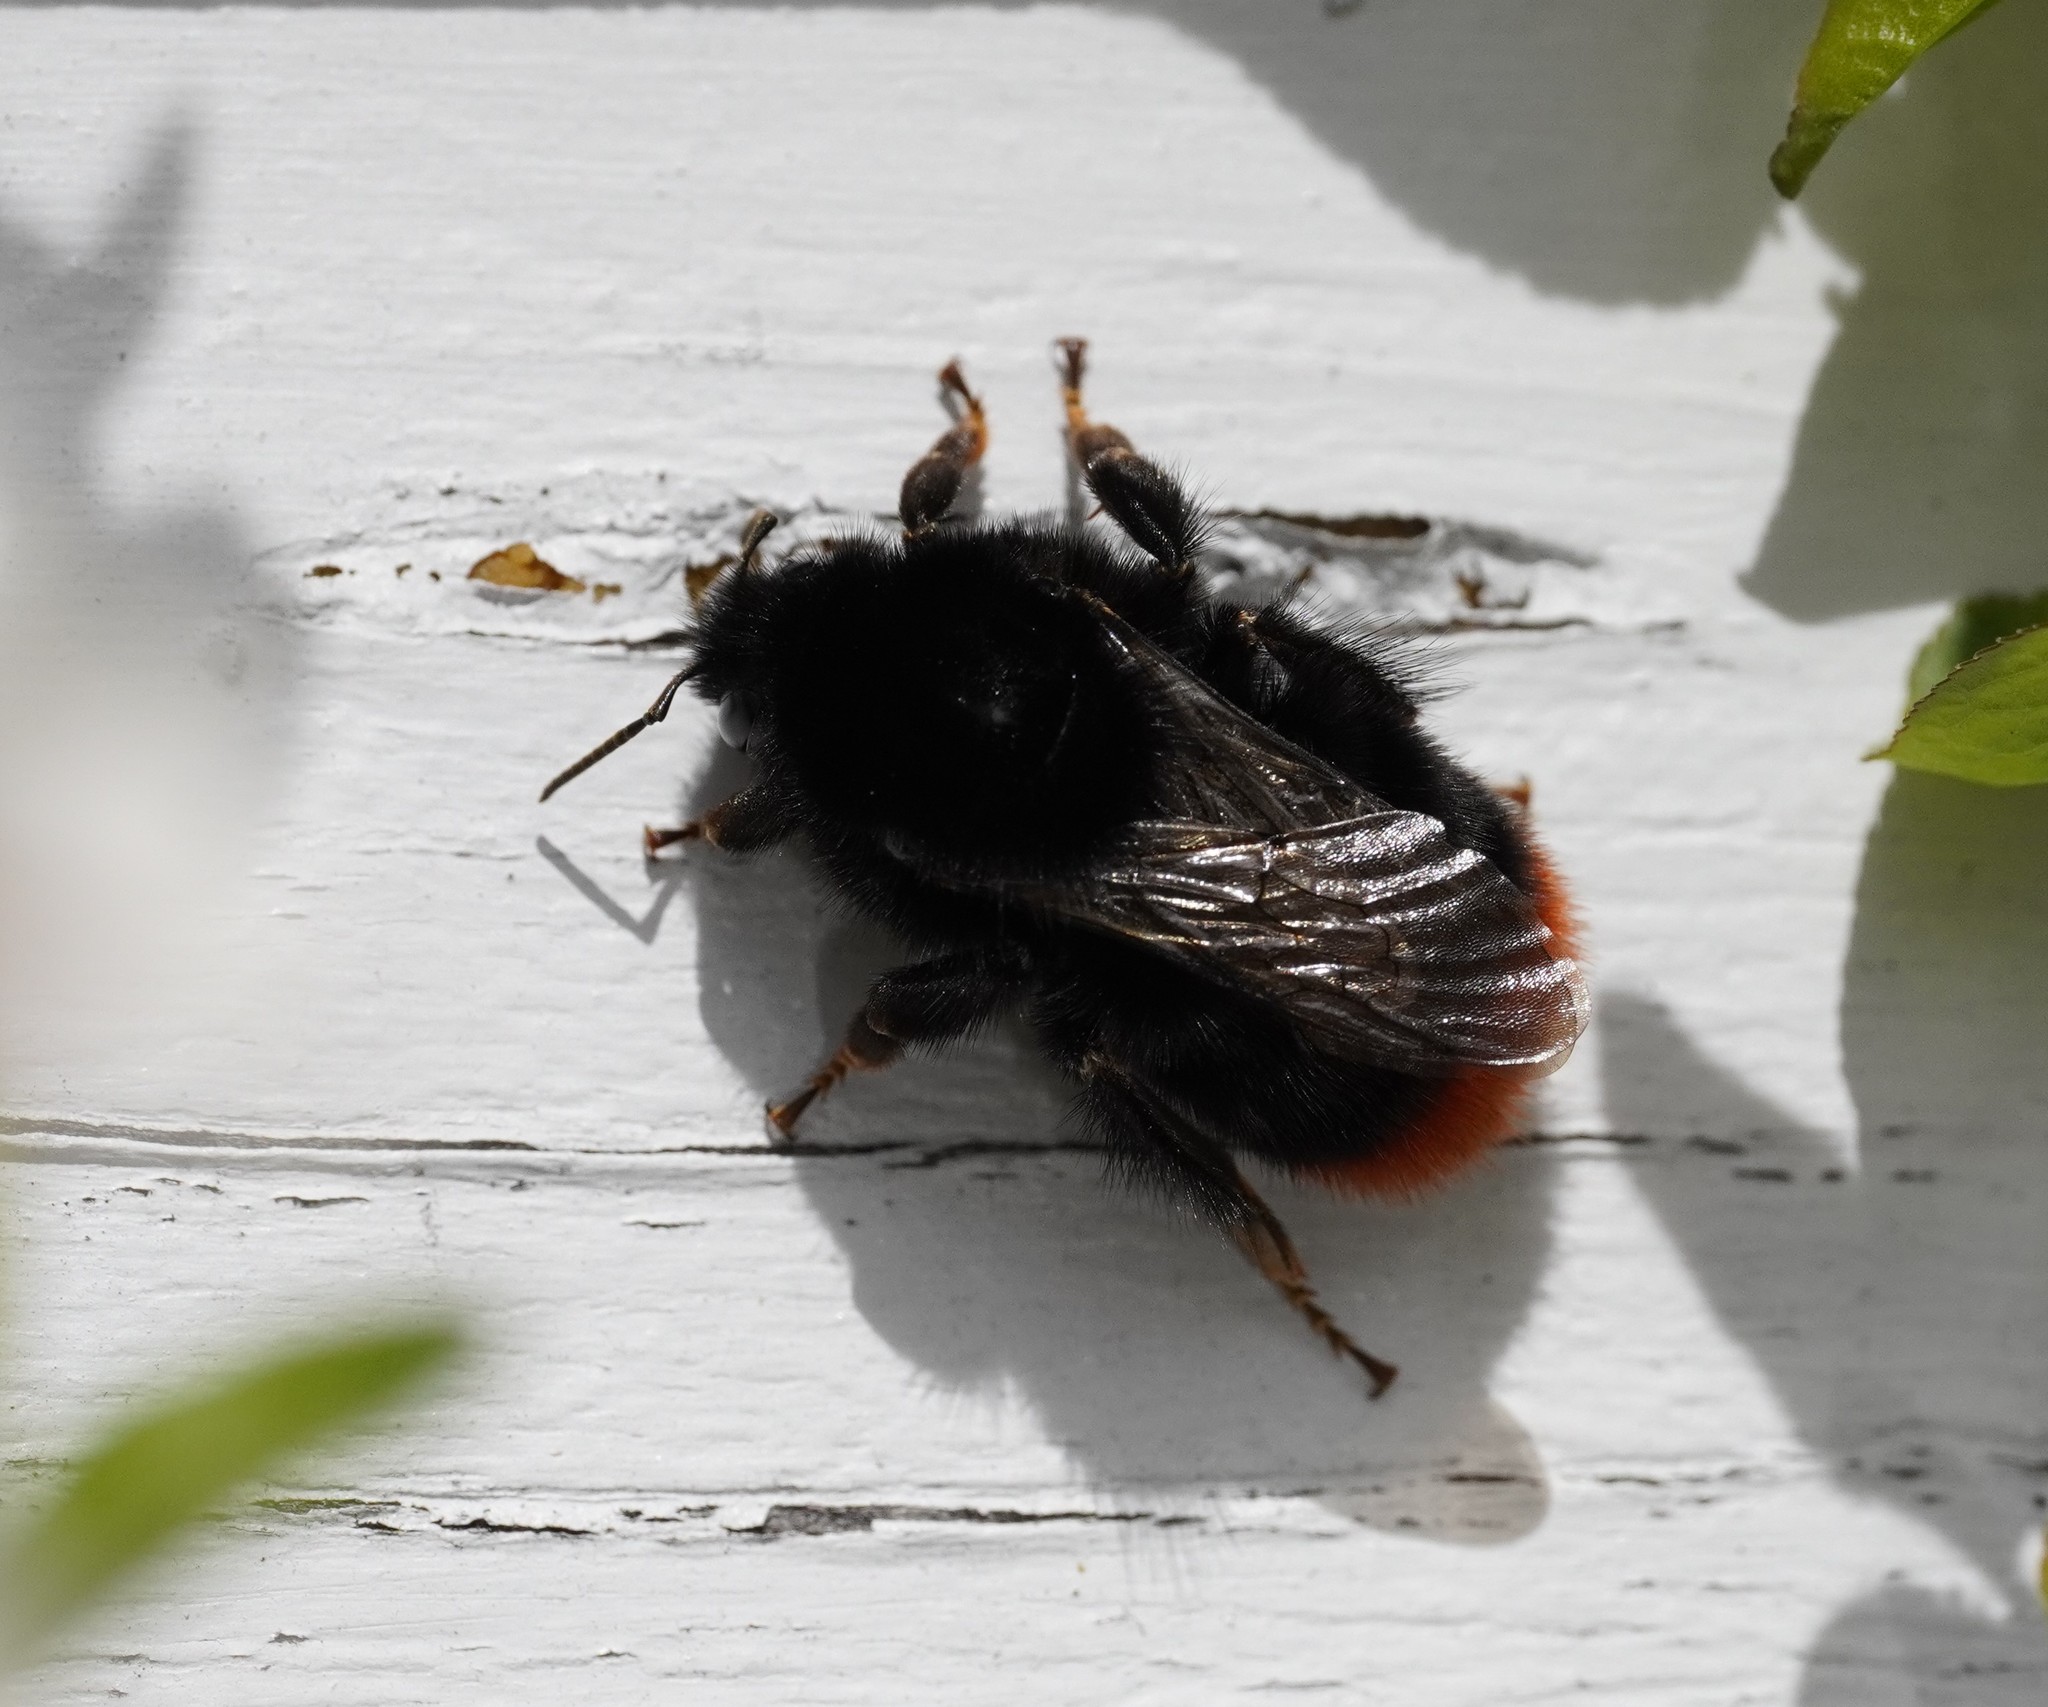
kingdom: Animalia
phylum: Arthropoda
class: Insecta
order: Hymenoptera
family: Apidae
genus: Bombus
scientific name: Bombus lapidarius
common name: Large red-tailed humble-bee
